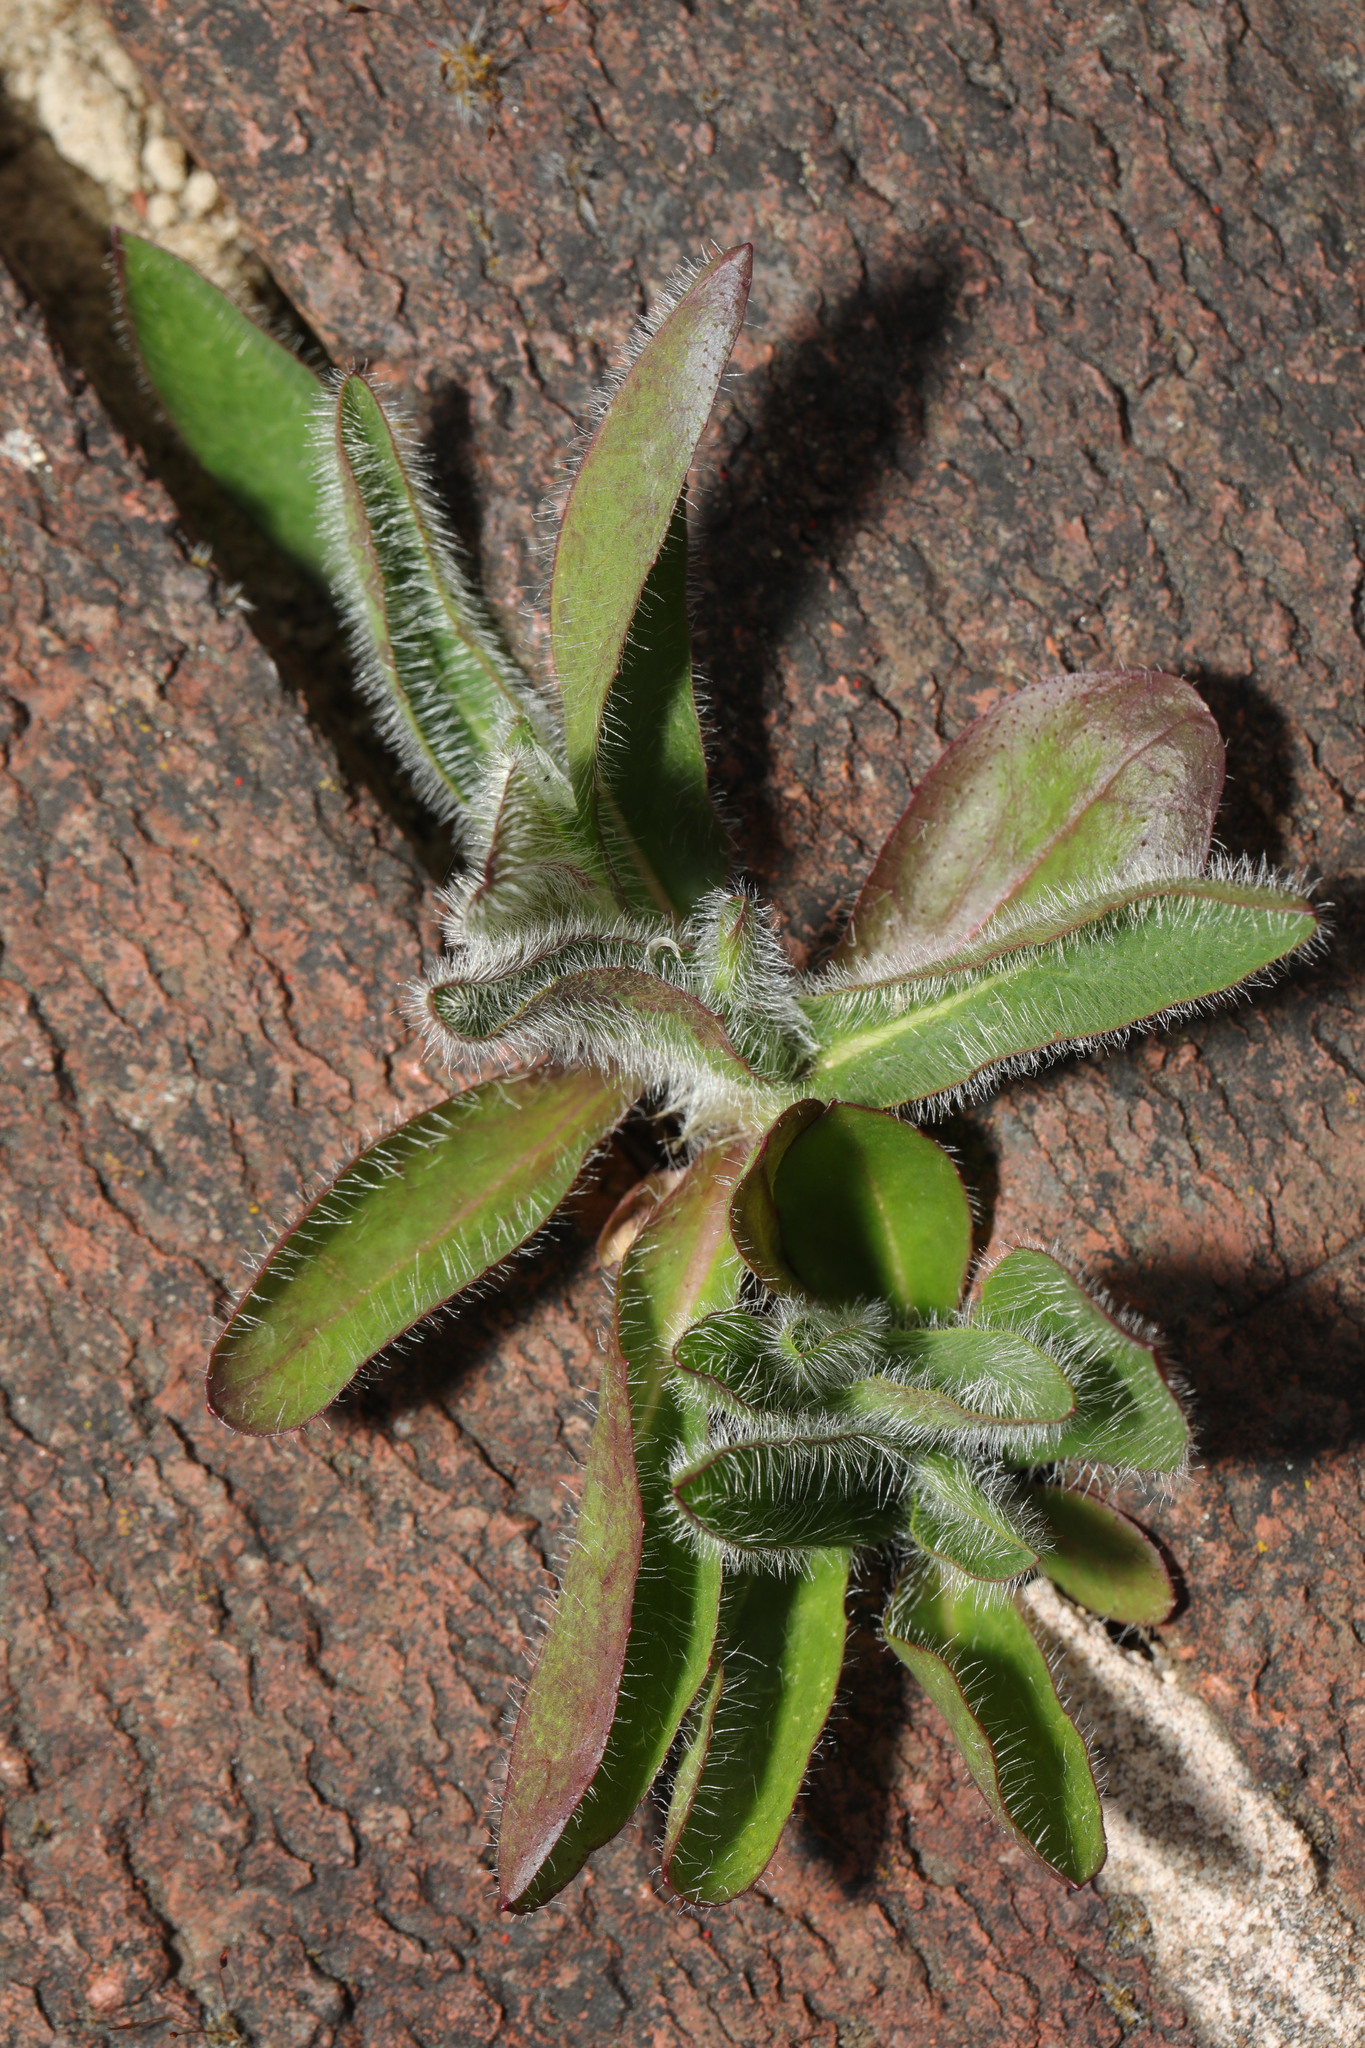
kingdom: Plantae
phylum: Tracheophyta
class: Magnoliopsida
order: Asterales
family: Asteraceae
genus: Pilosella
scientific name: Pilosella aurantiaca
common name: Fox-and-cubs
